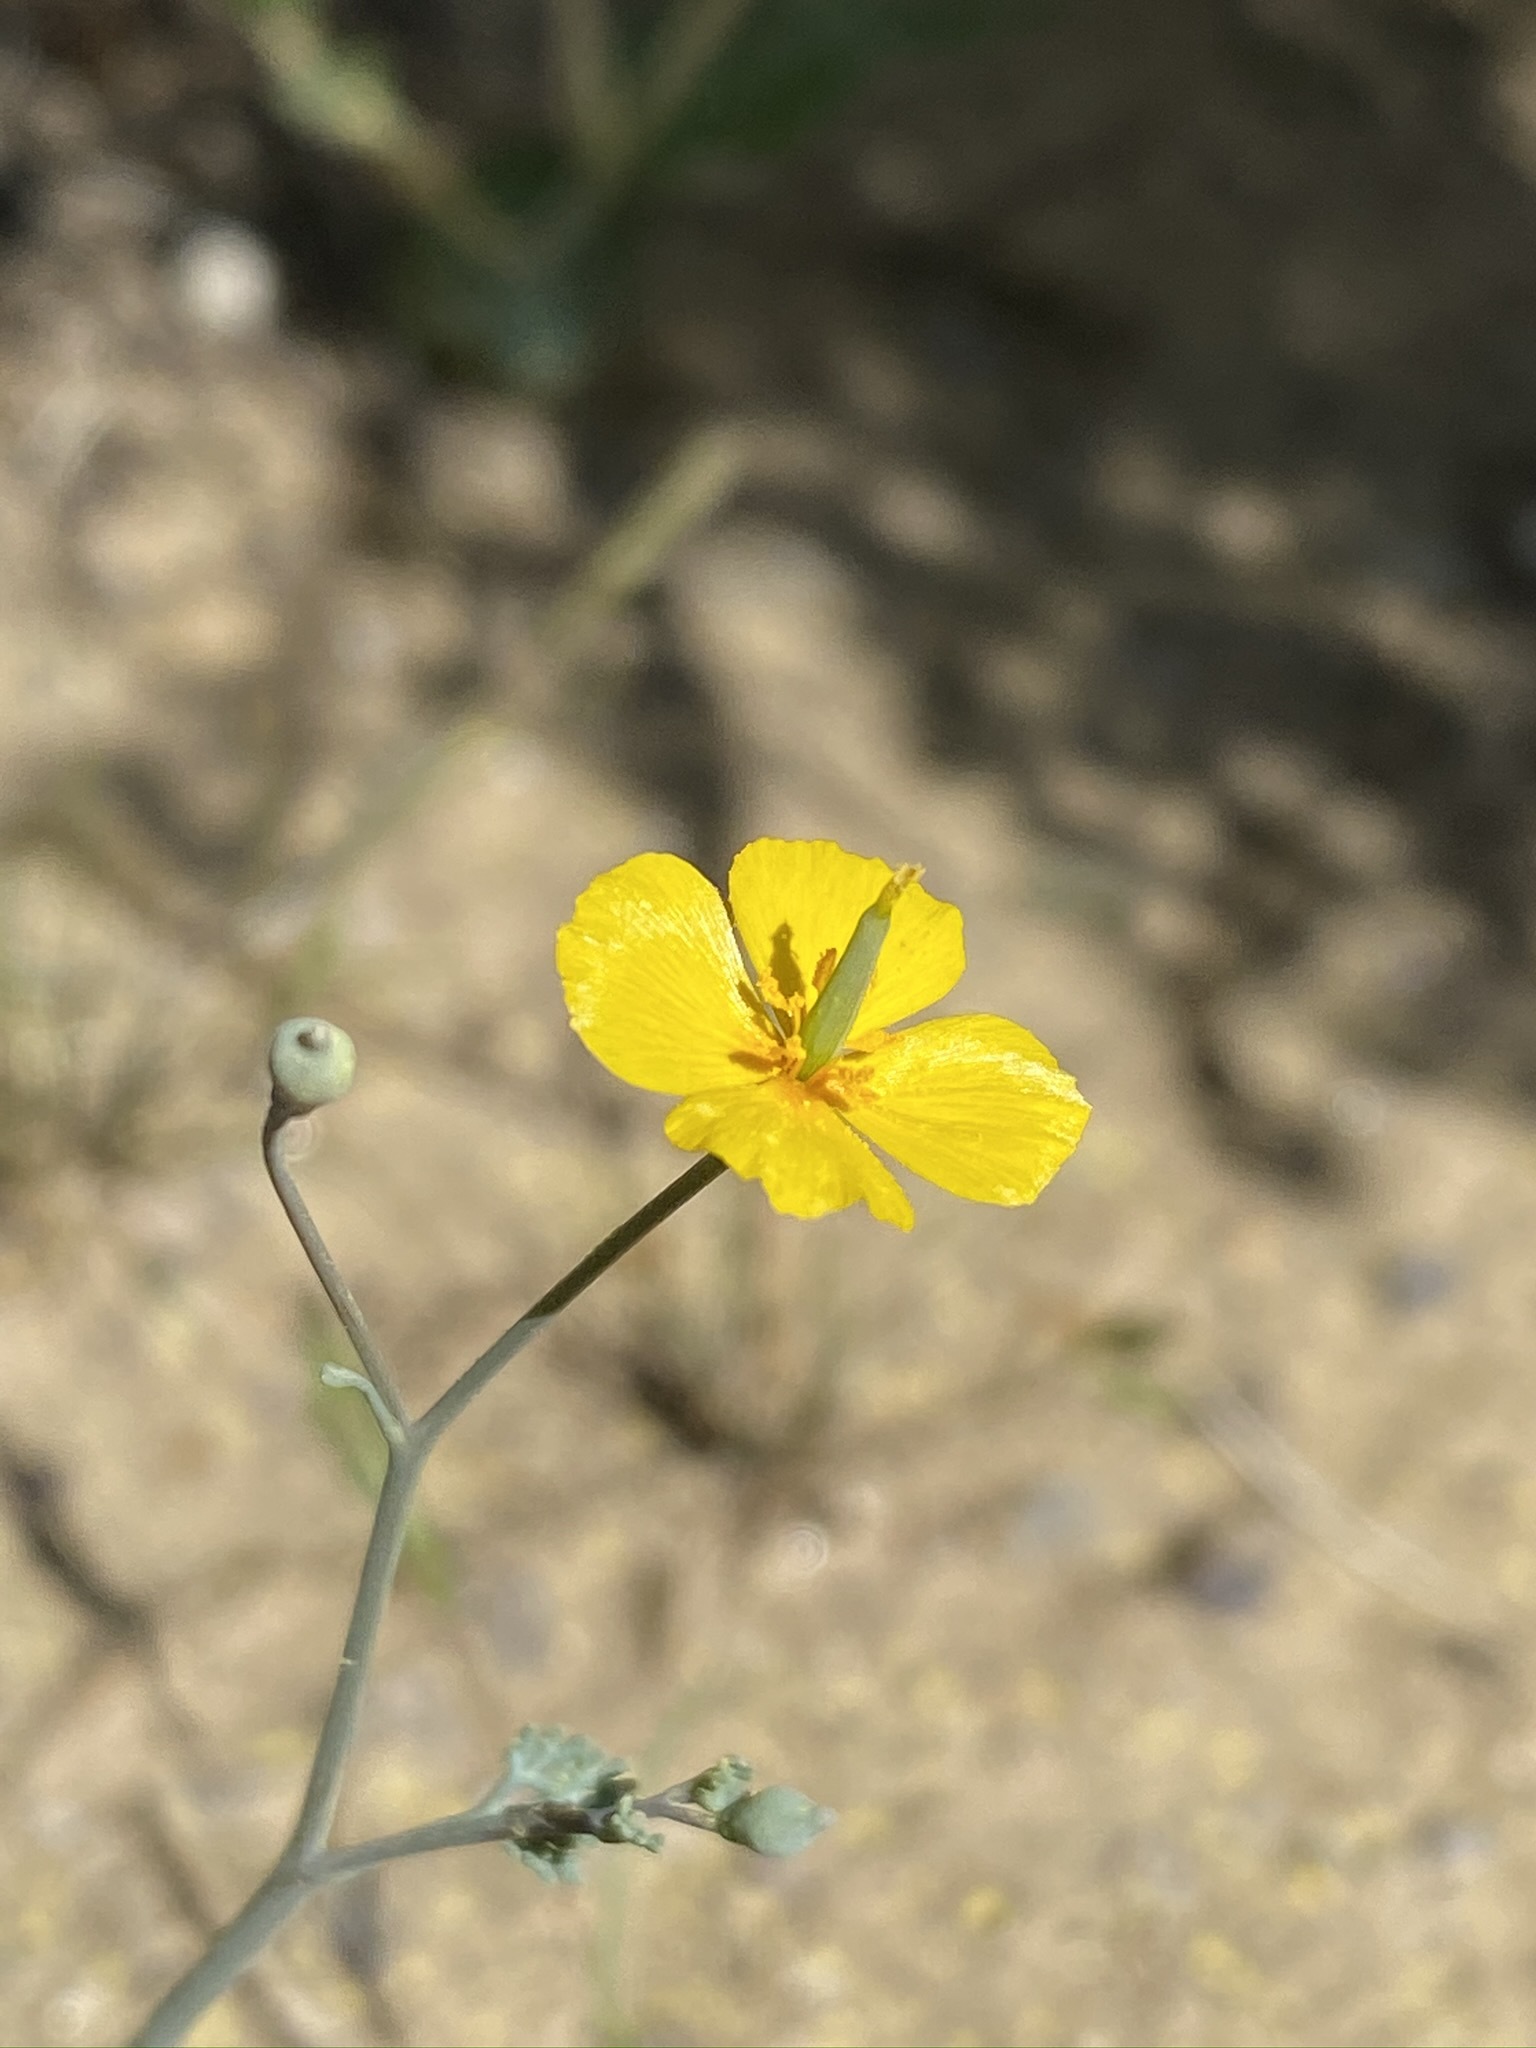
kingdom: Plantae
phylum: Tracheophyta
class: Magnoliopsida
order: Ranunculales
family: Papaveraceae
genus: Eschscholzia
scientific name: Eschscholzia minutiflora
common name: Small-flower california-poppy
